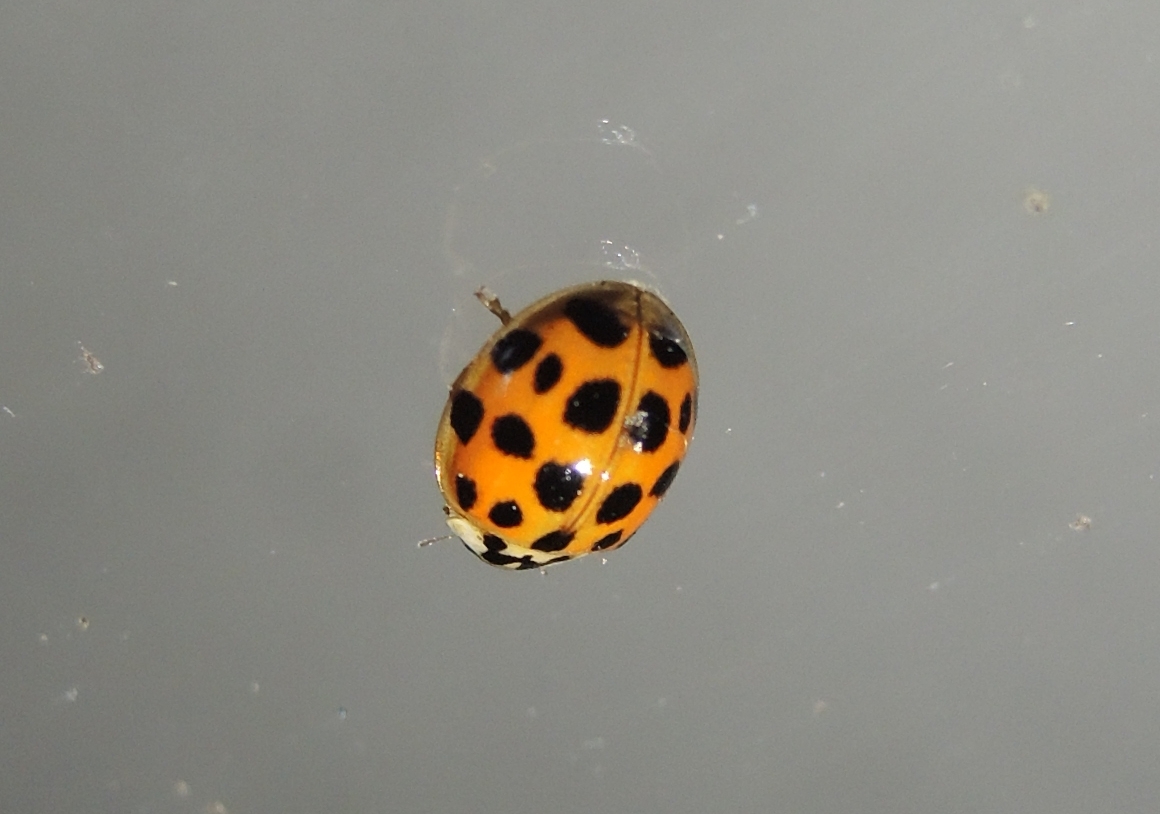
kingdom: Animalia
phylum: Arthropoda
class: Insecta
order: Coleoptera
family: Coccinellidae
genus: Harmonia
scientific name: Harmonia axyridis
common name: Harlequin ladybird
